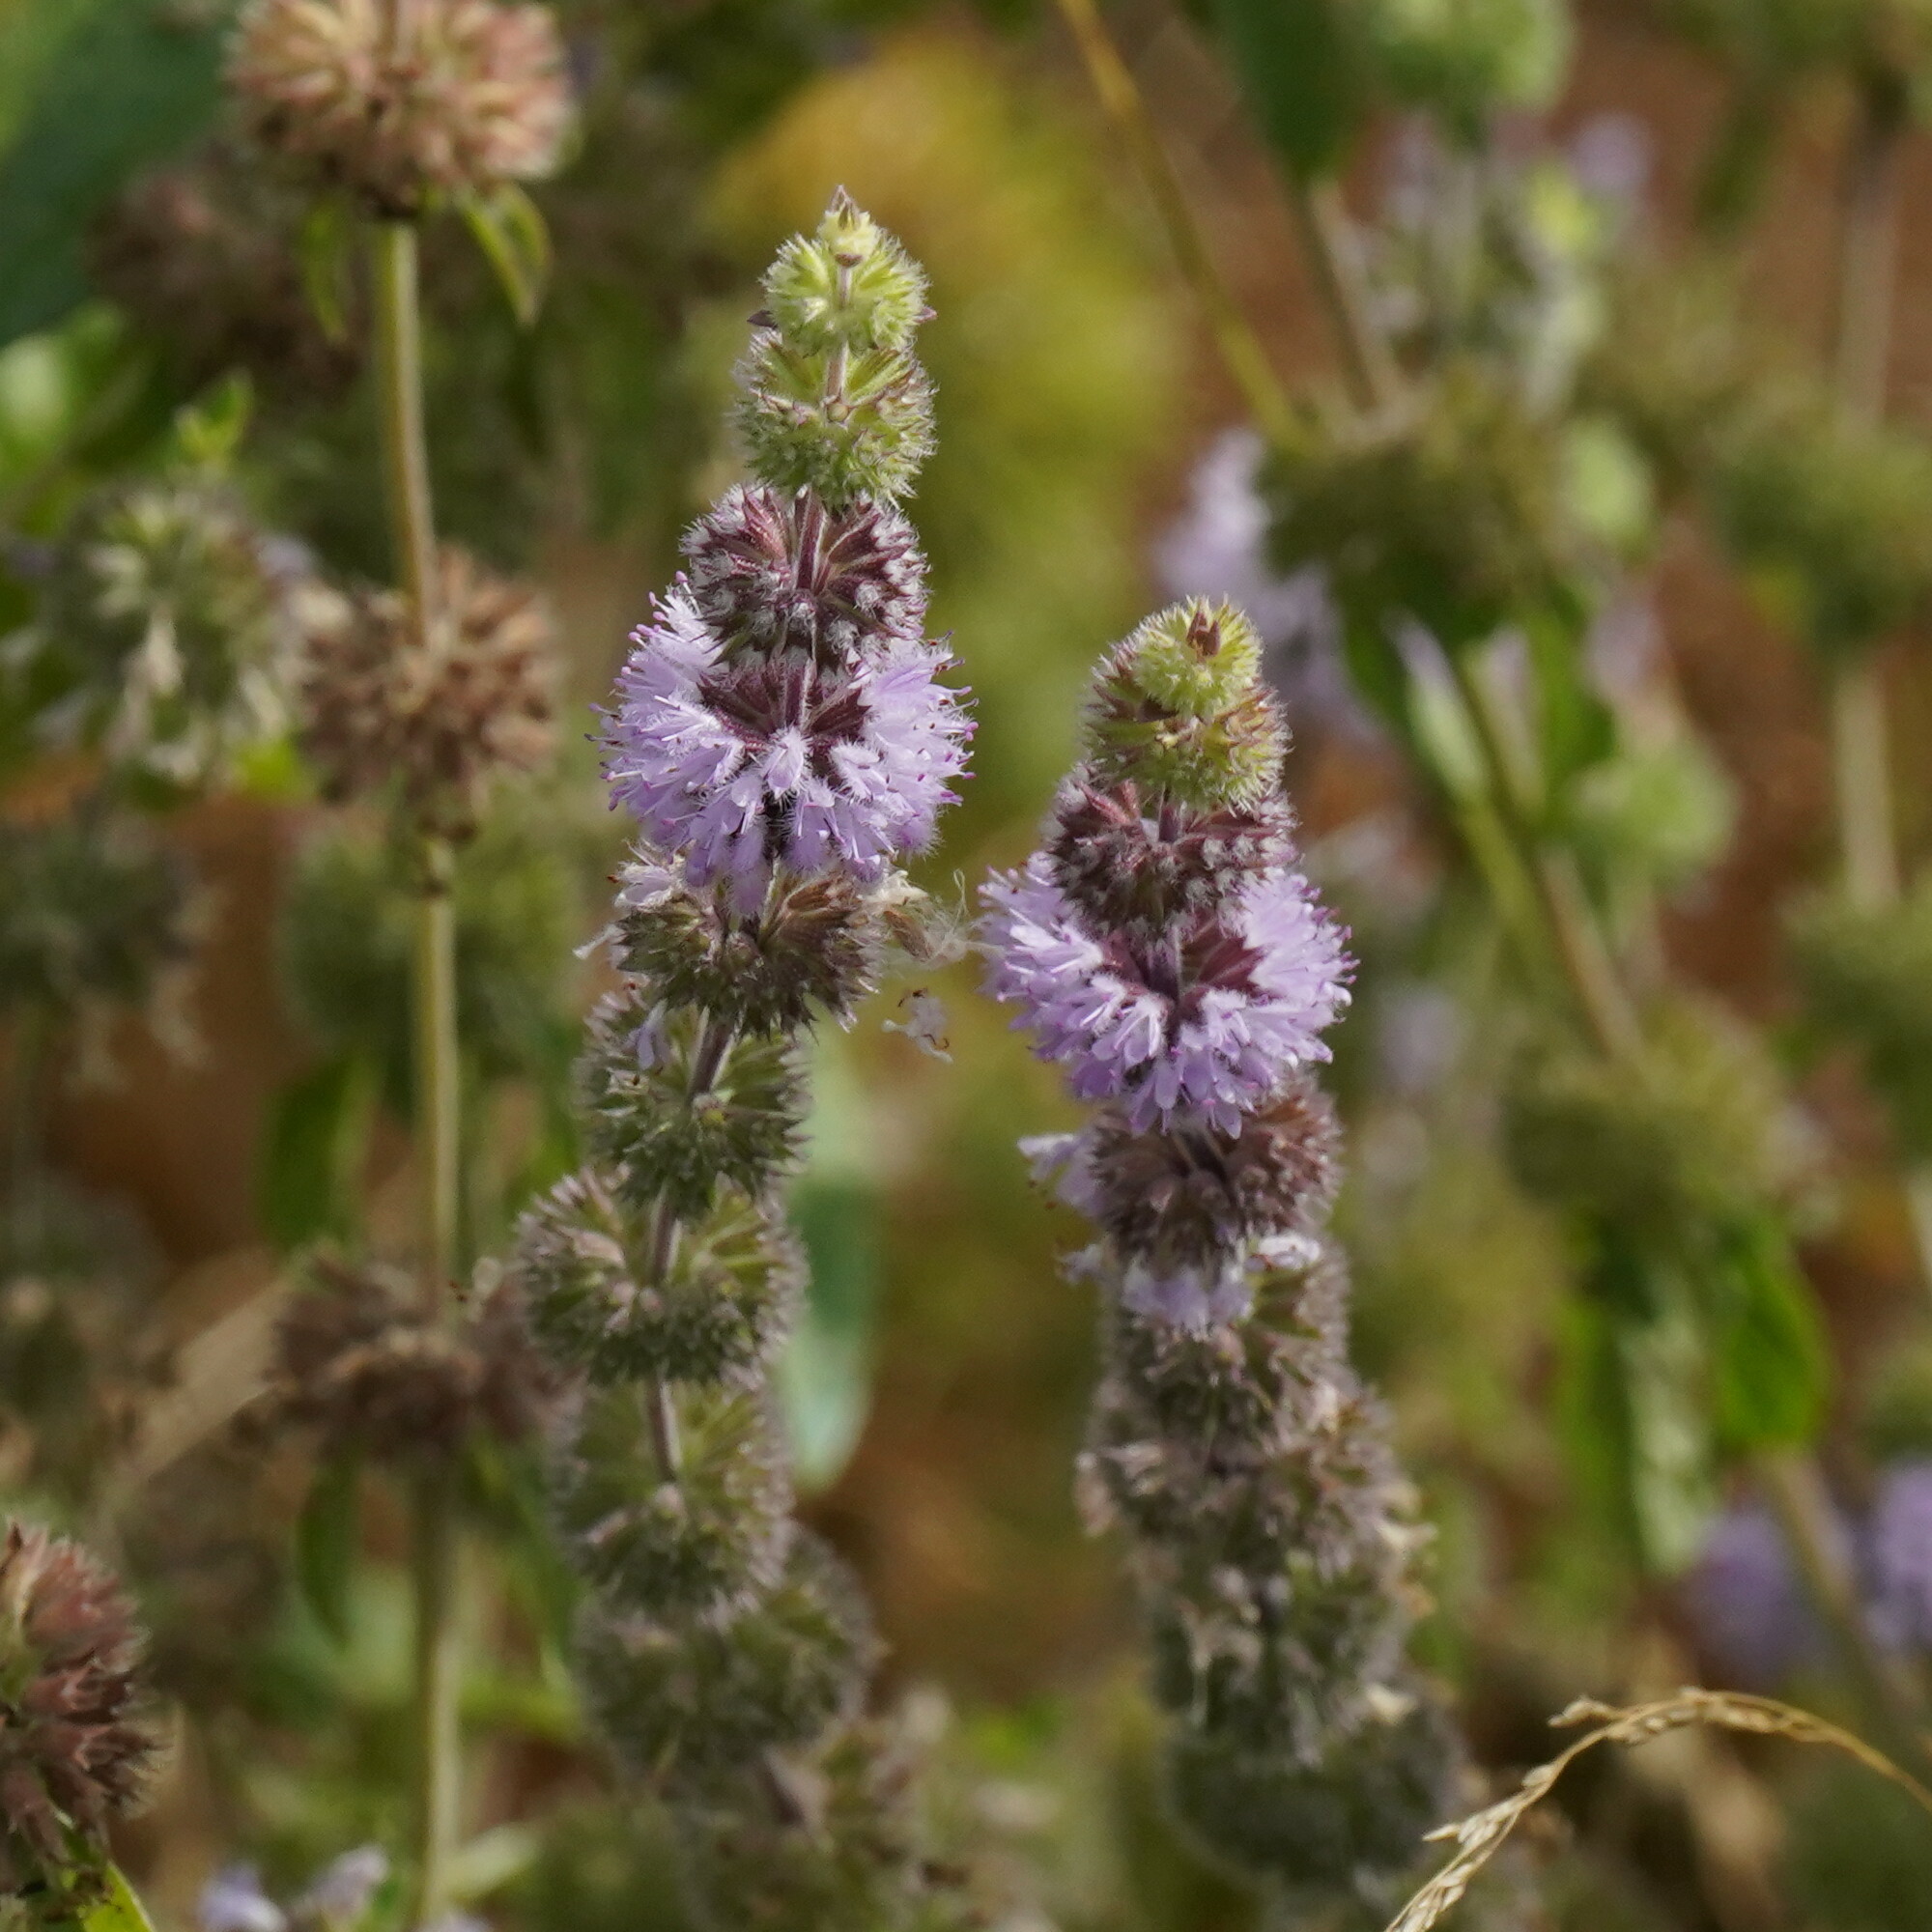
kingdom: Plantae
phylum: Tracheophyta
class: Magnoliopsida
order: Lamiales
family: Lamiaceae
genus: Mentha
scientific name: Mentha pulegium
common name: Pennyroyal
